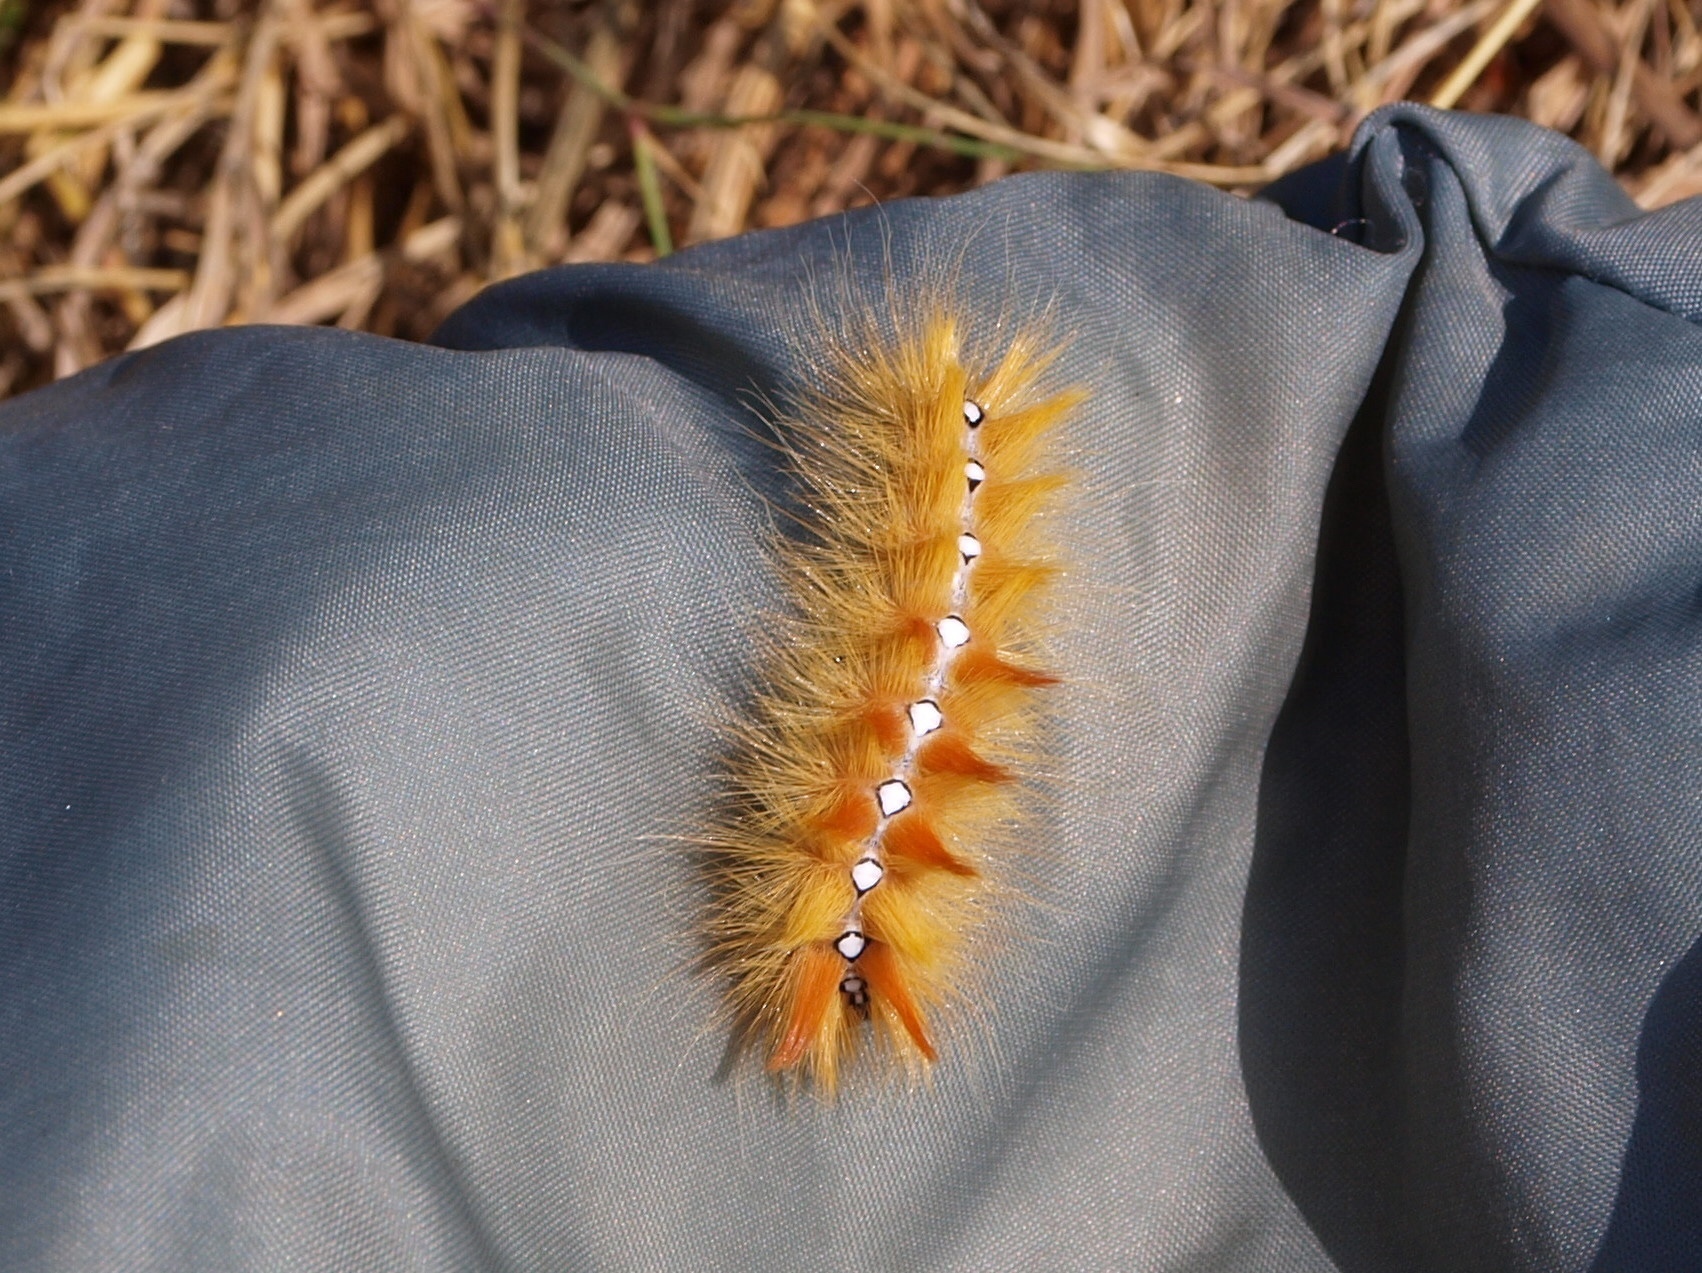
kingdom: Animalia
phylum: Arthropoda
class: Insecta
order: Lepidoptera
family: Noctuidae
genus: Acronicta
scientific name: Acronicta aceris
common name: Sycamore
